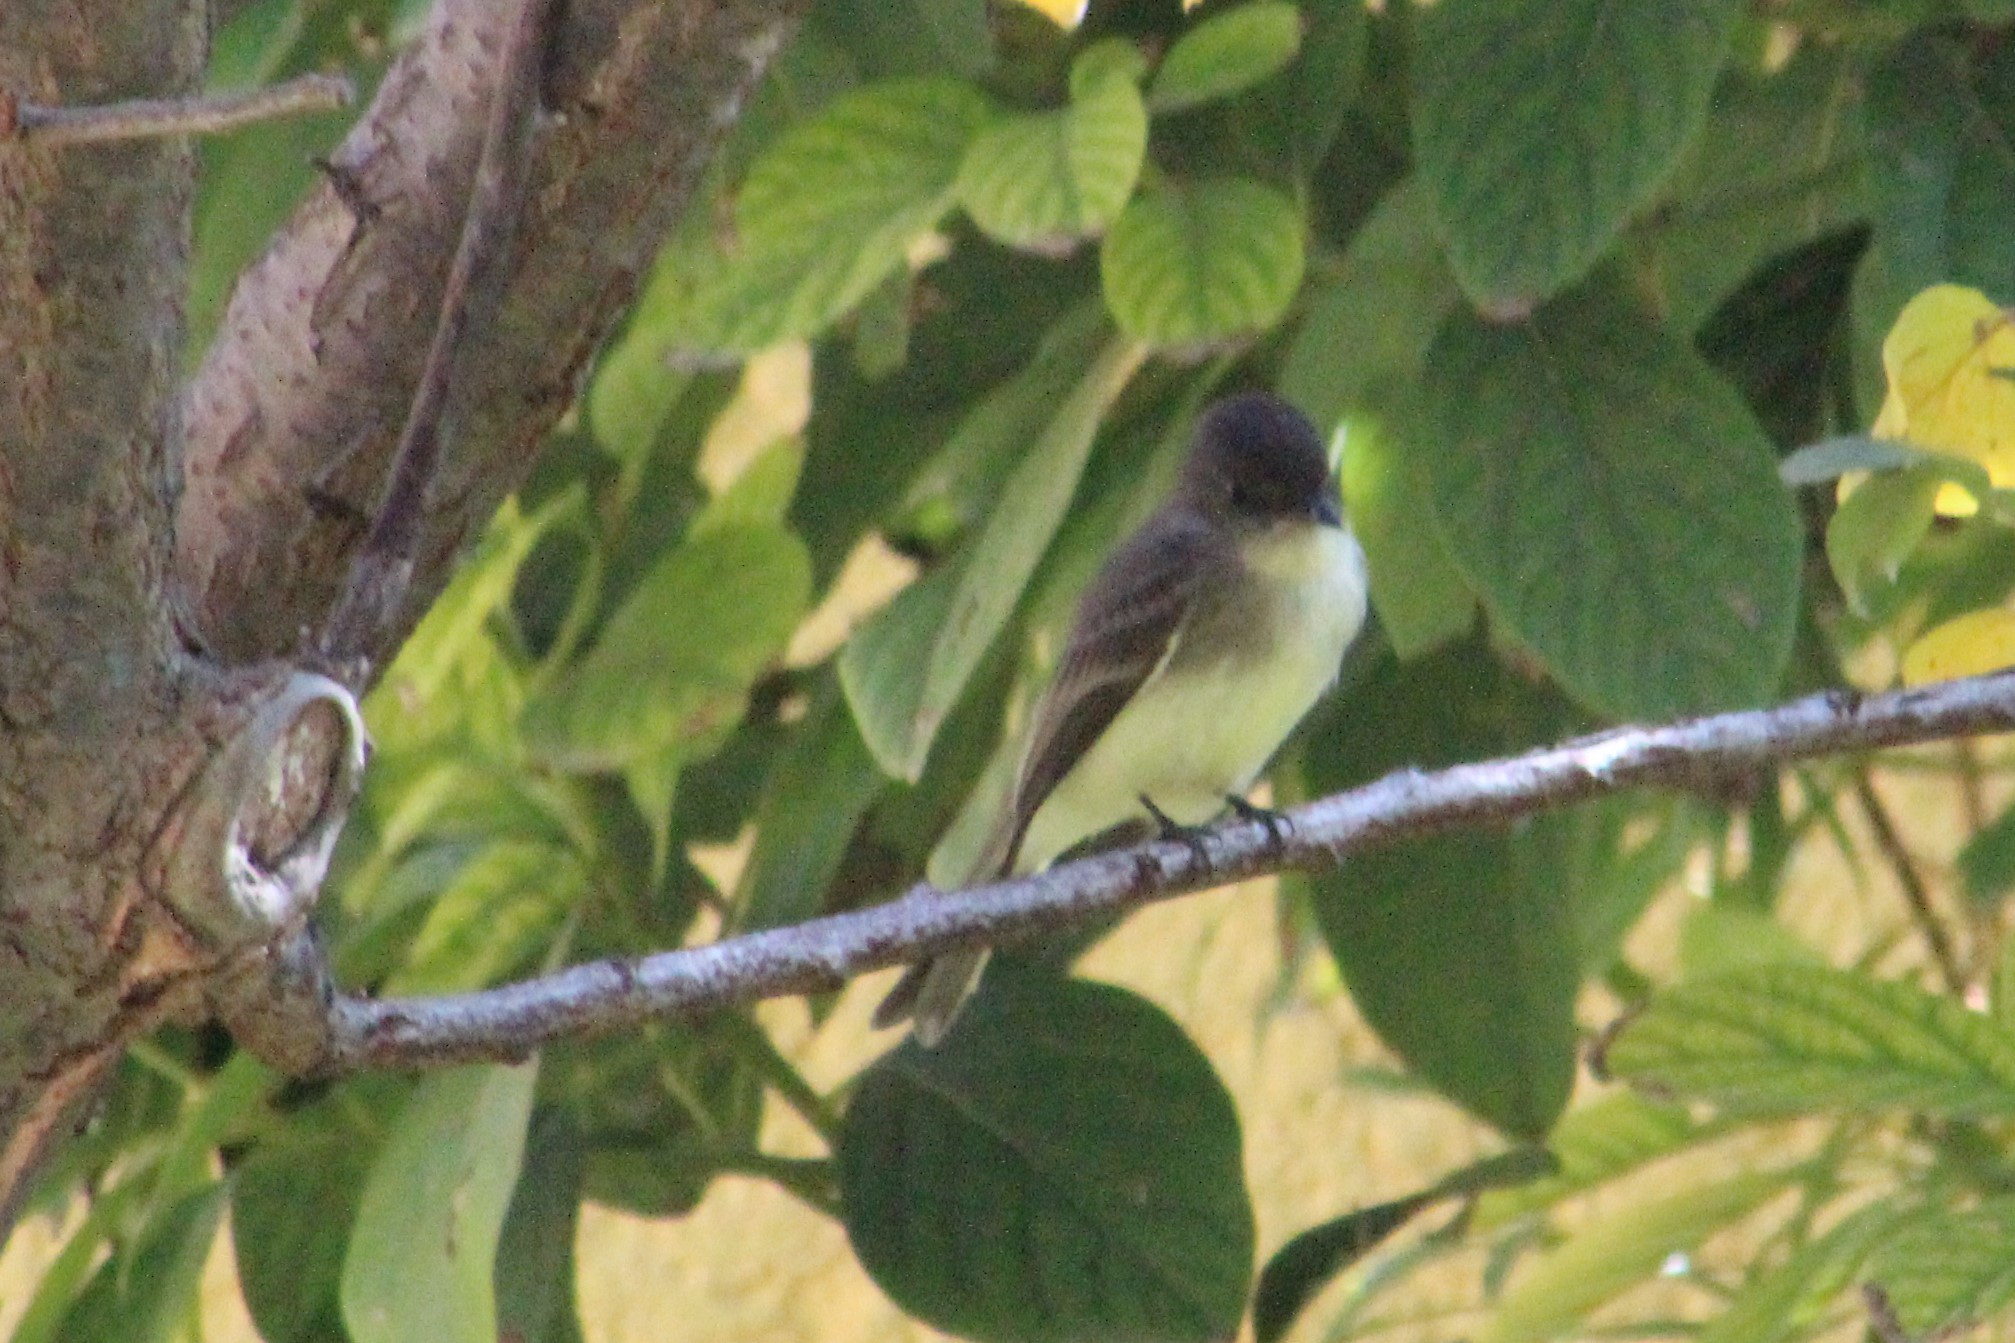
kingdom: Animalia
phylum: Chordata
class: Aves
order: Passeriformes
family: Tyrannidae
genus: Sayornis
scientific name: Sayornis phoebe
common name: Eastern phoebe
